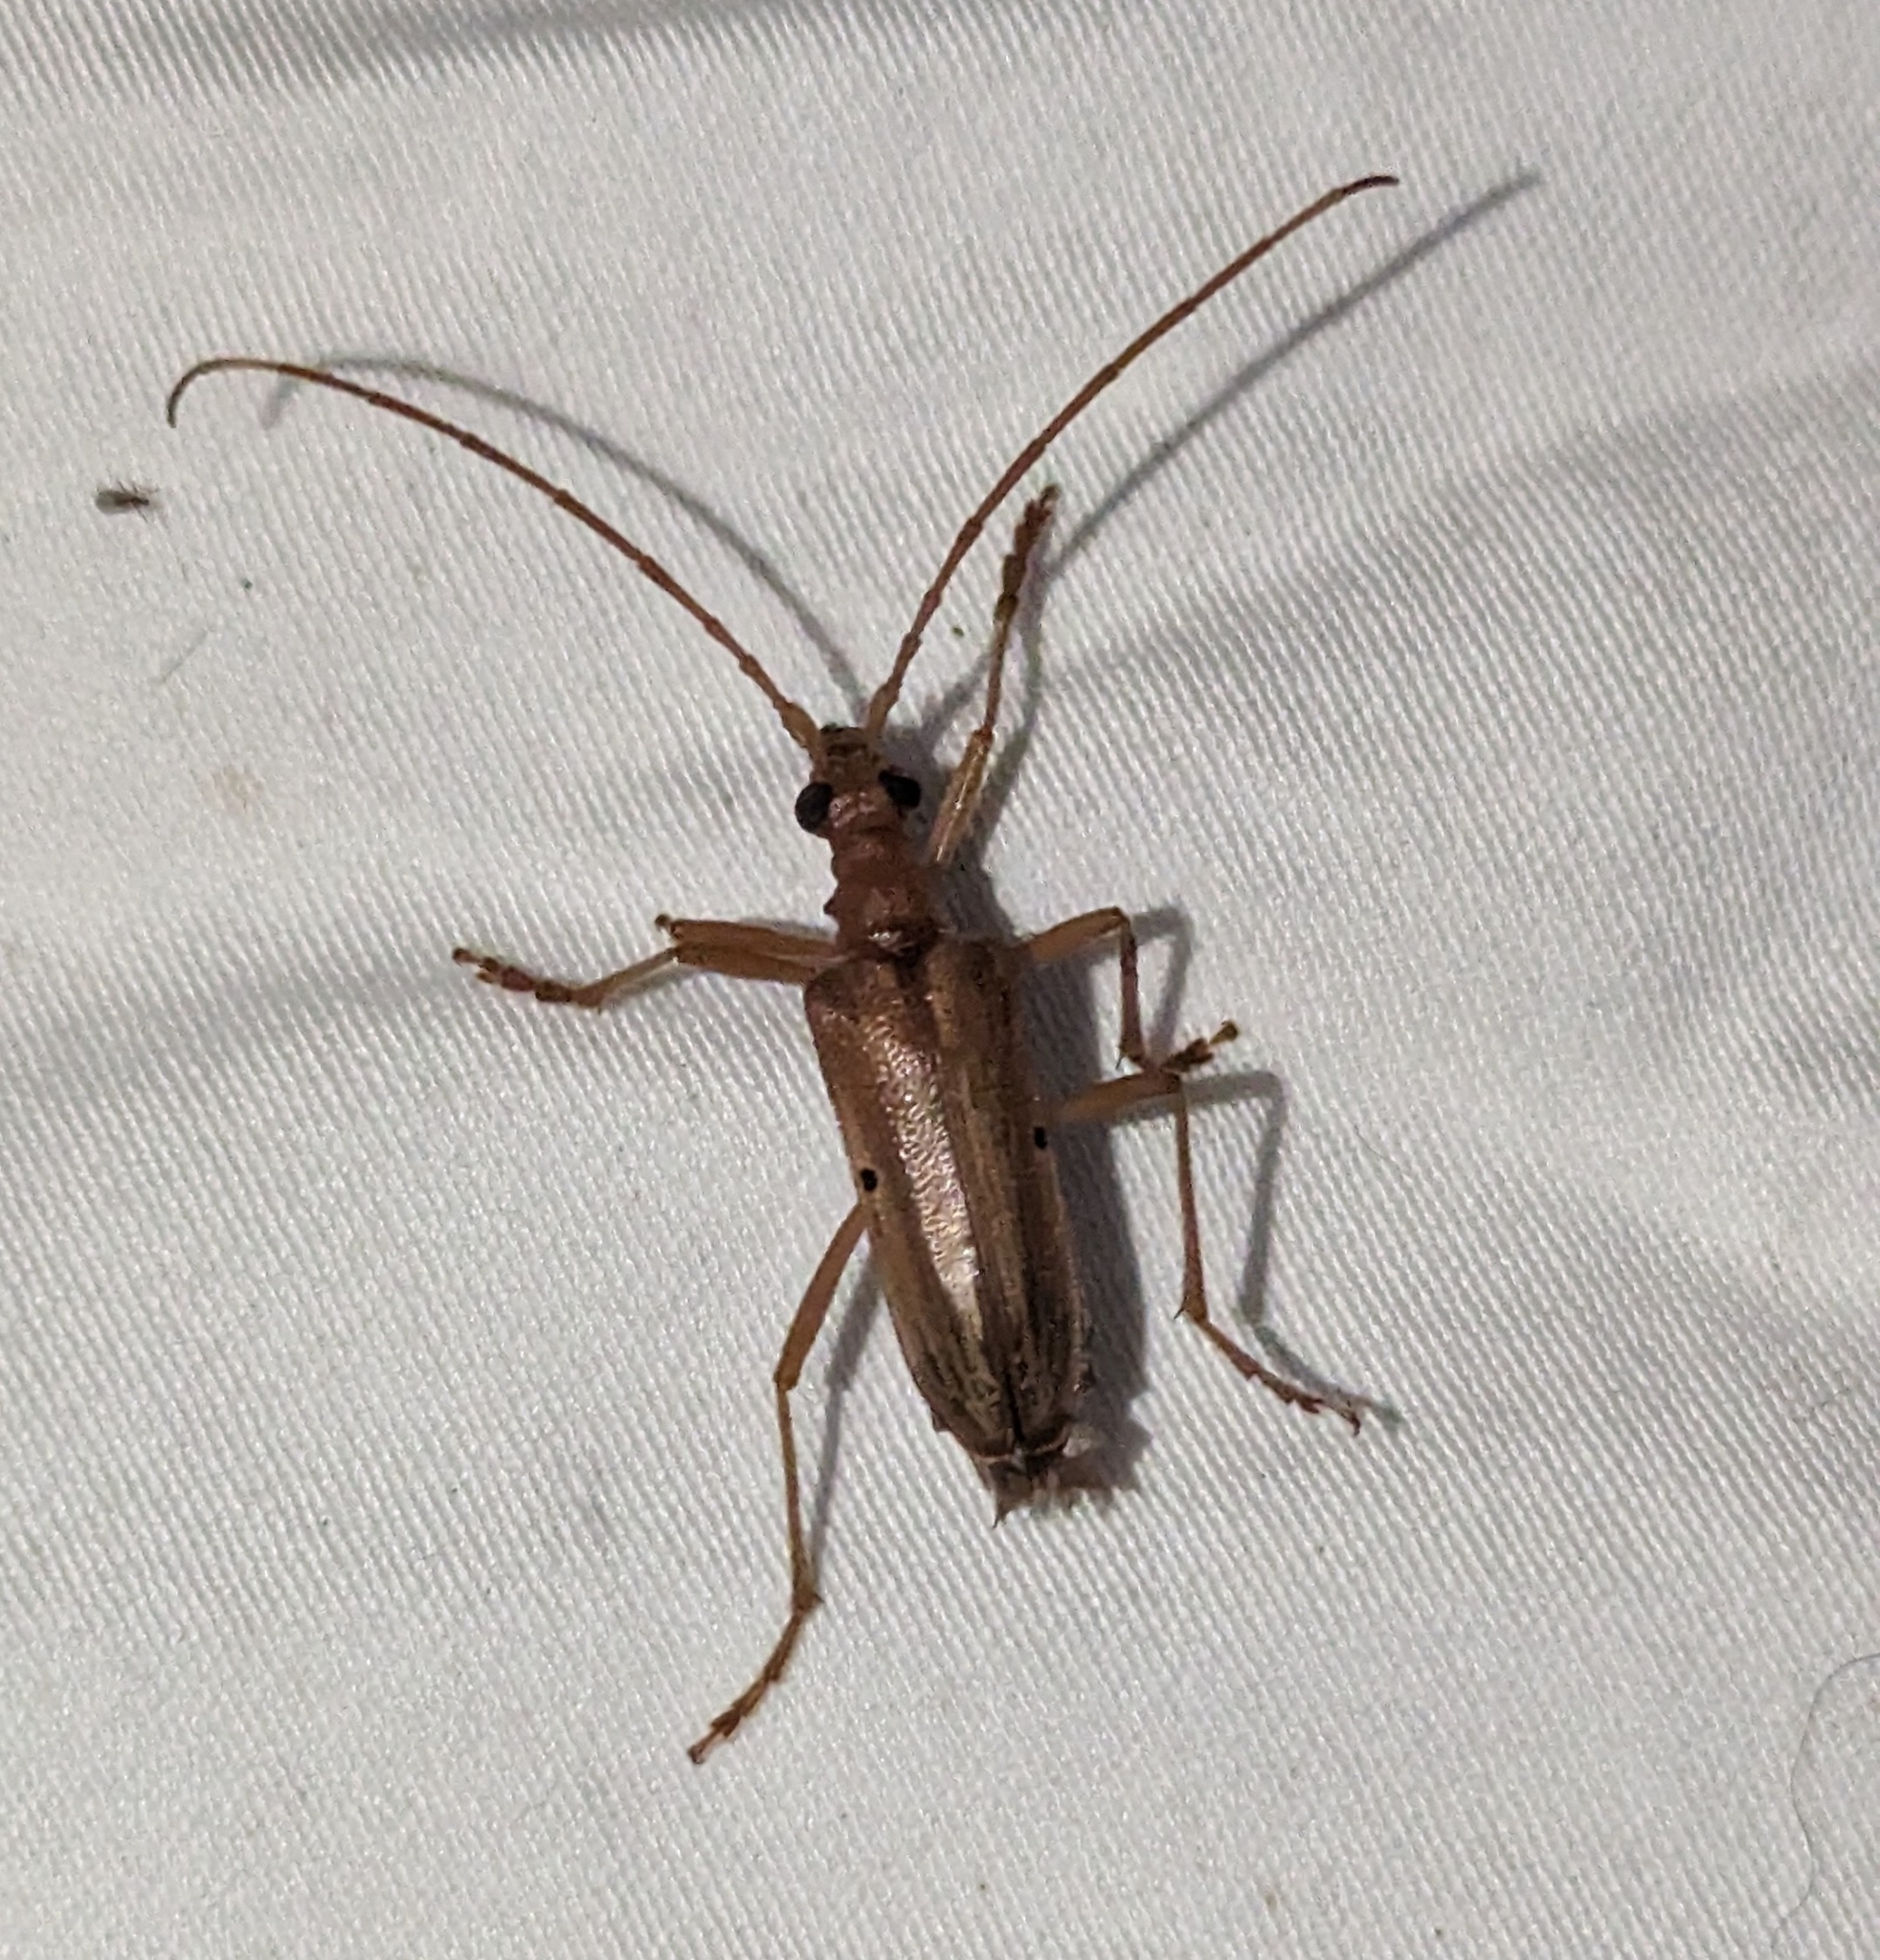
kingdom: Animalia
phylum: Arthropoda
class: Insecta
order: Coleoptera
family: Cerambycidae
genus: Centrodera
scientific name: Centrodera spurca
